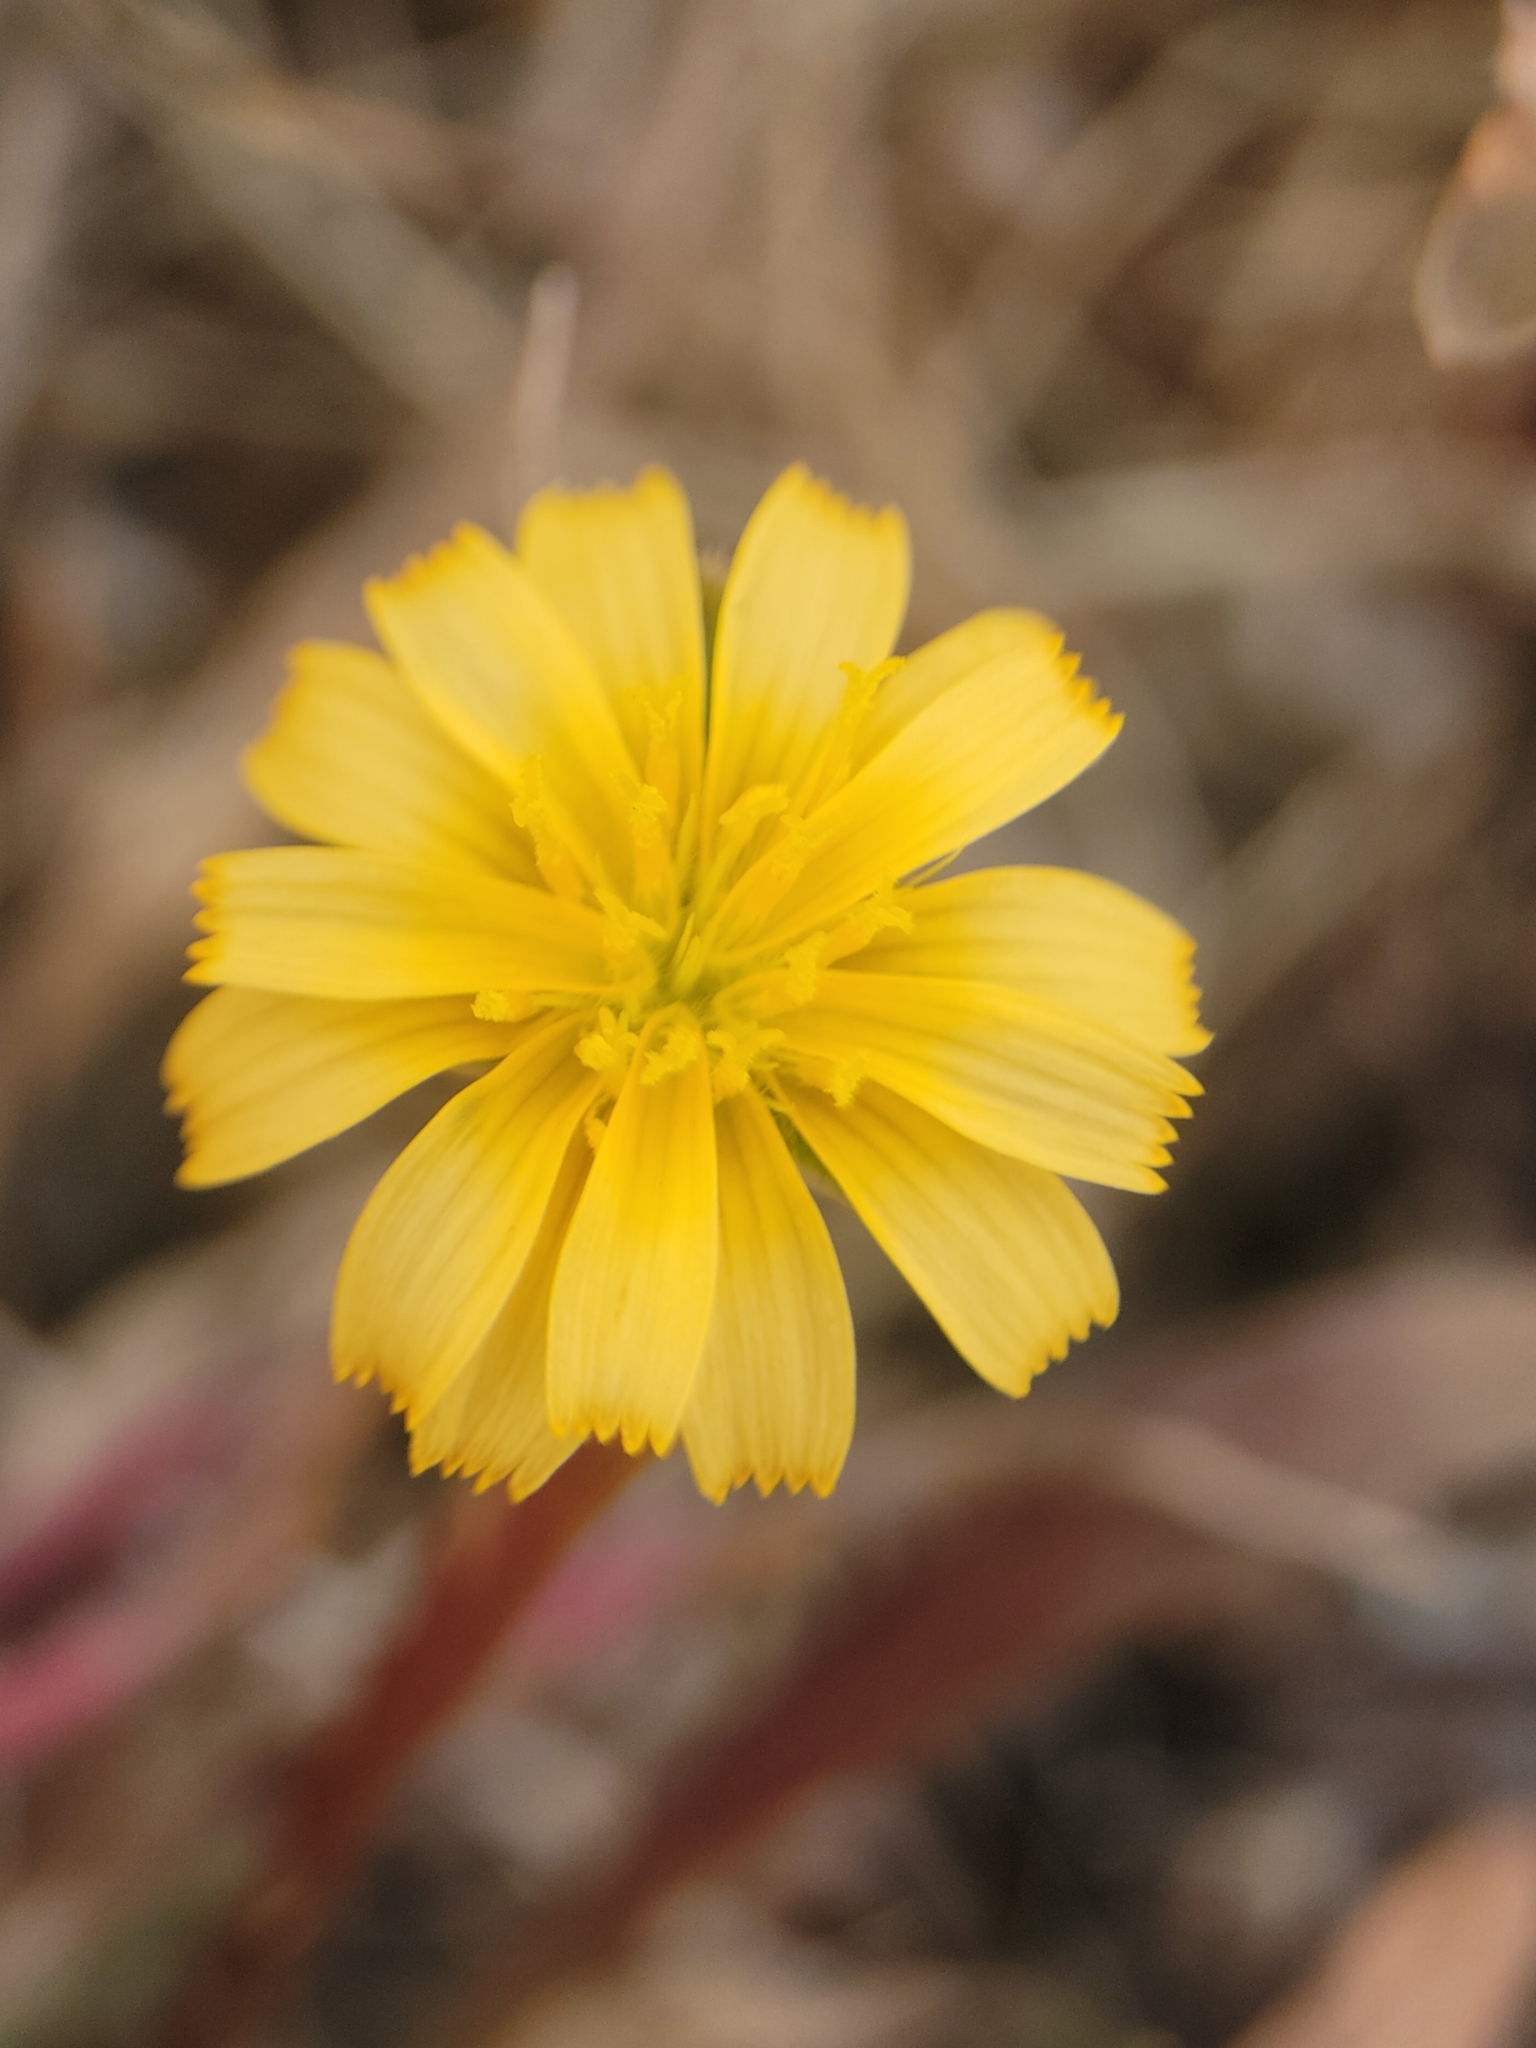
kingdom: Plantae
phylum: Tracheophyta
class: Magnoliopsida
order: Asterales
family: Asteraceae
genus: Microseris
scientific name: Microseris bigelovii
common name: Coast microseris
